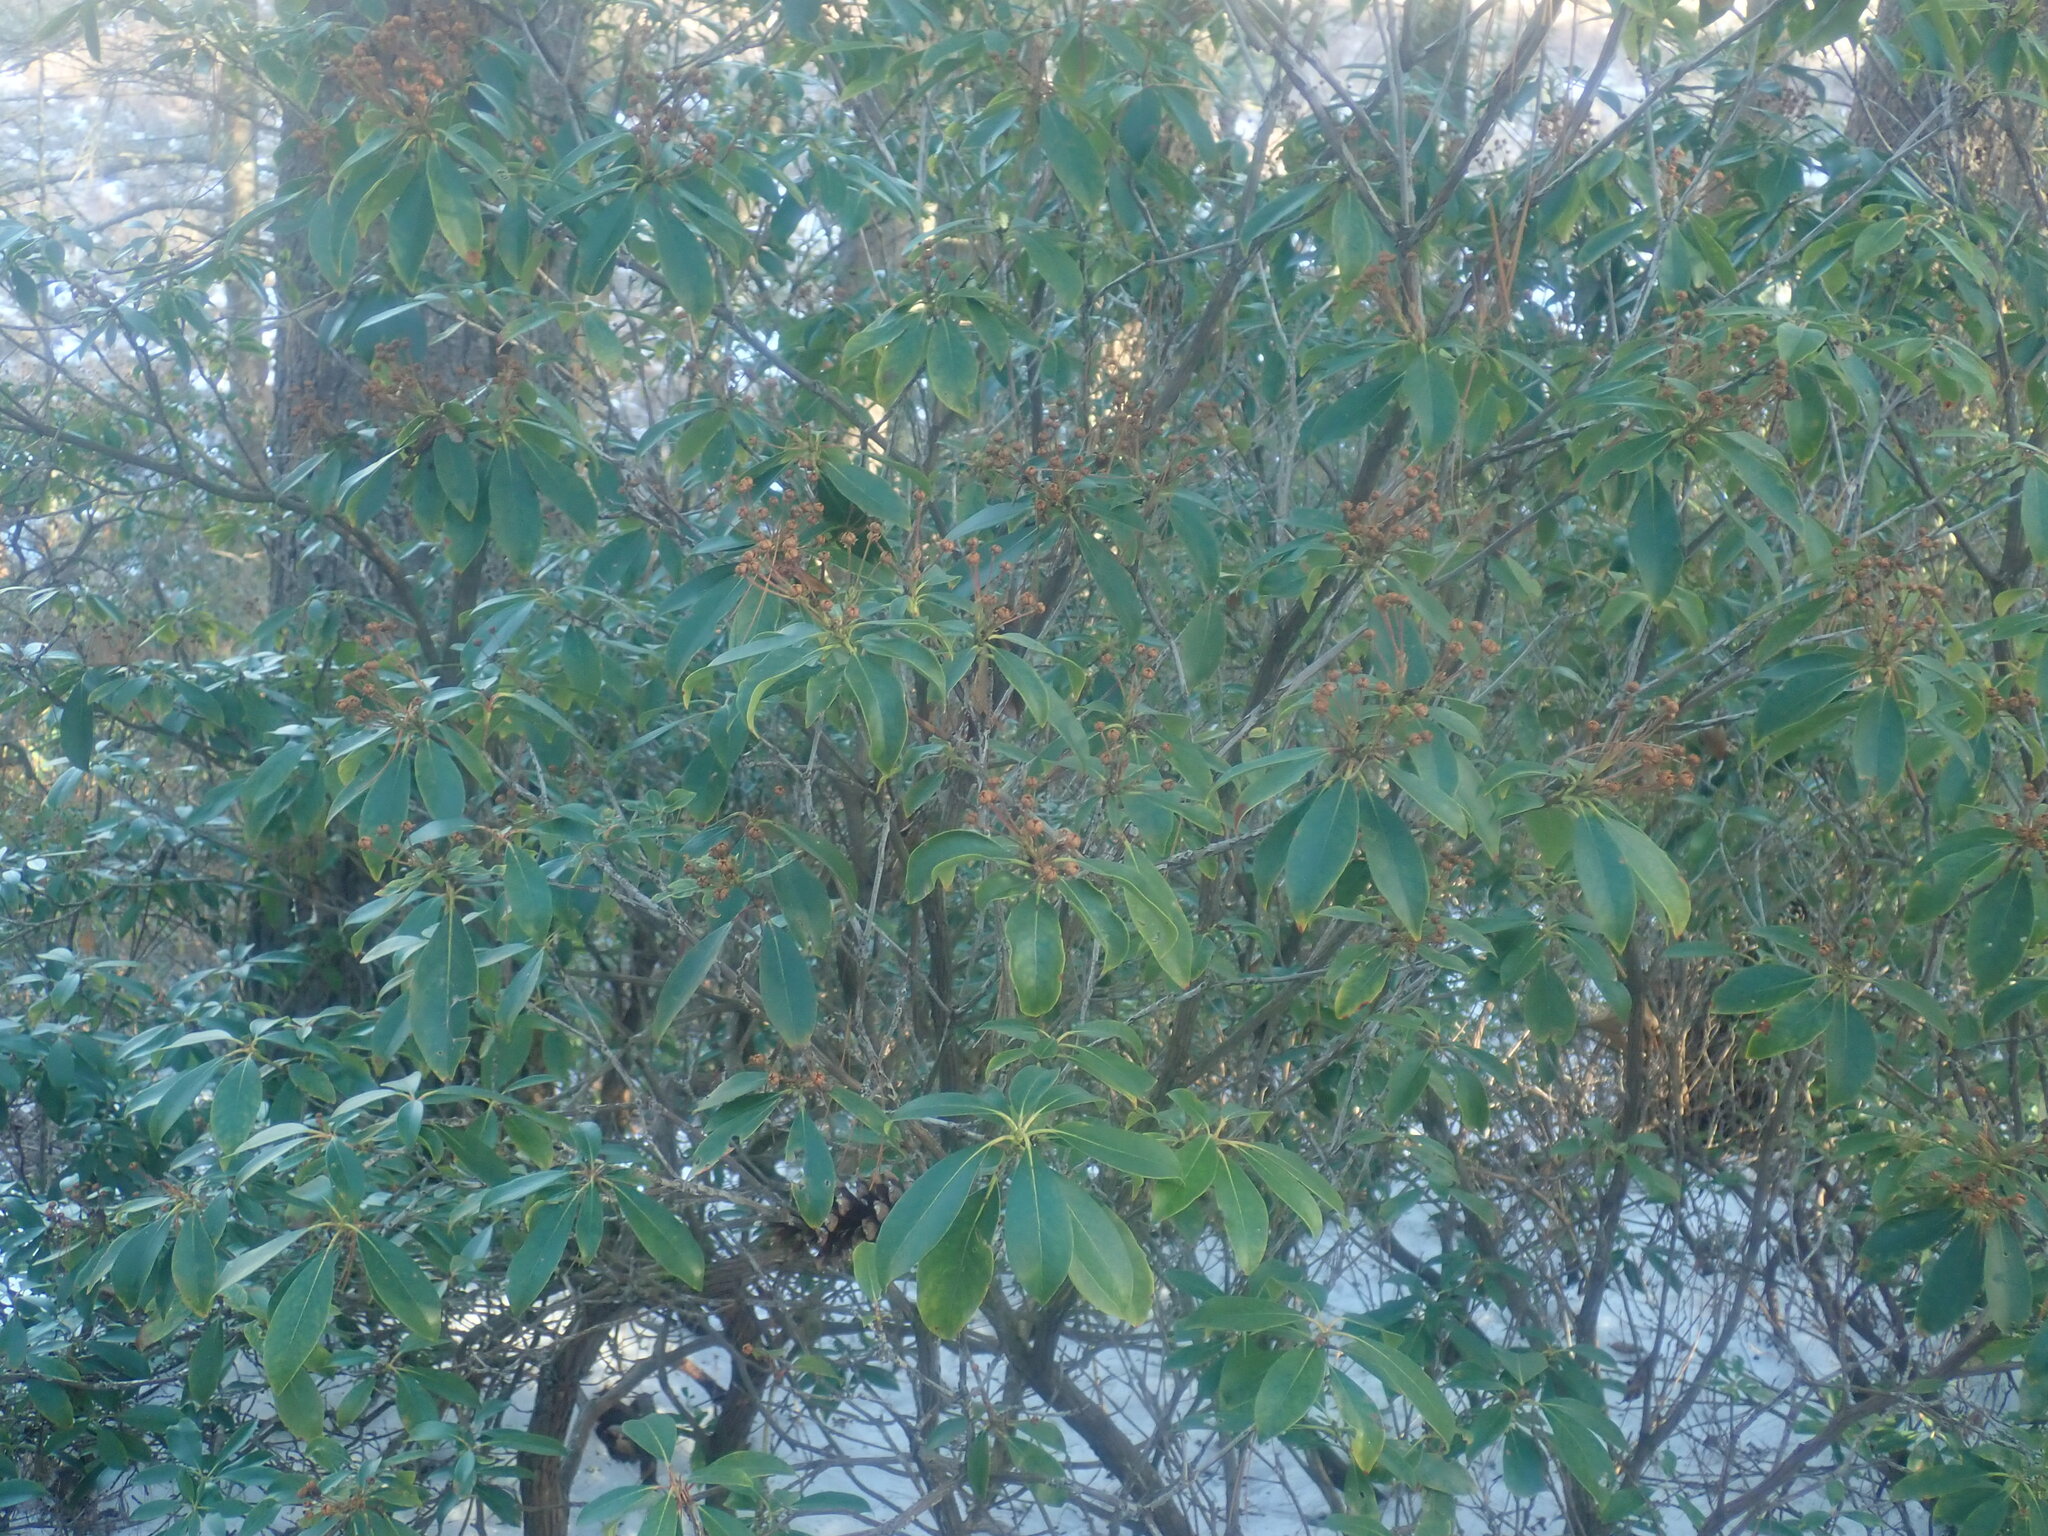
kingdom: Plantae
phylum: Tracheophyta
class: Magnoliopsida
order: Ericales
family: Ericaceae
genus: Kalmia
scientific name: Kalmia latifolia
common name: Mountain-laurel
